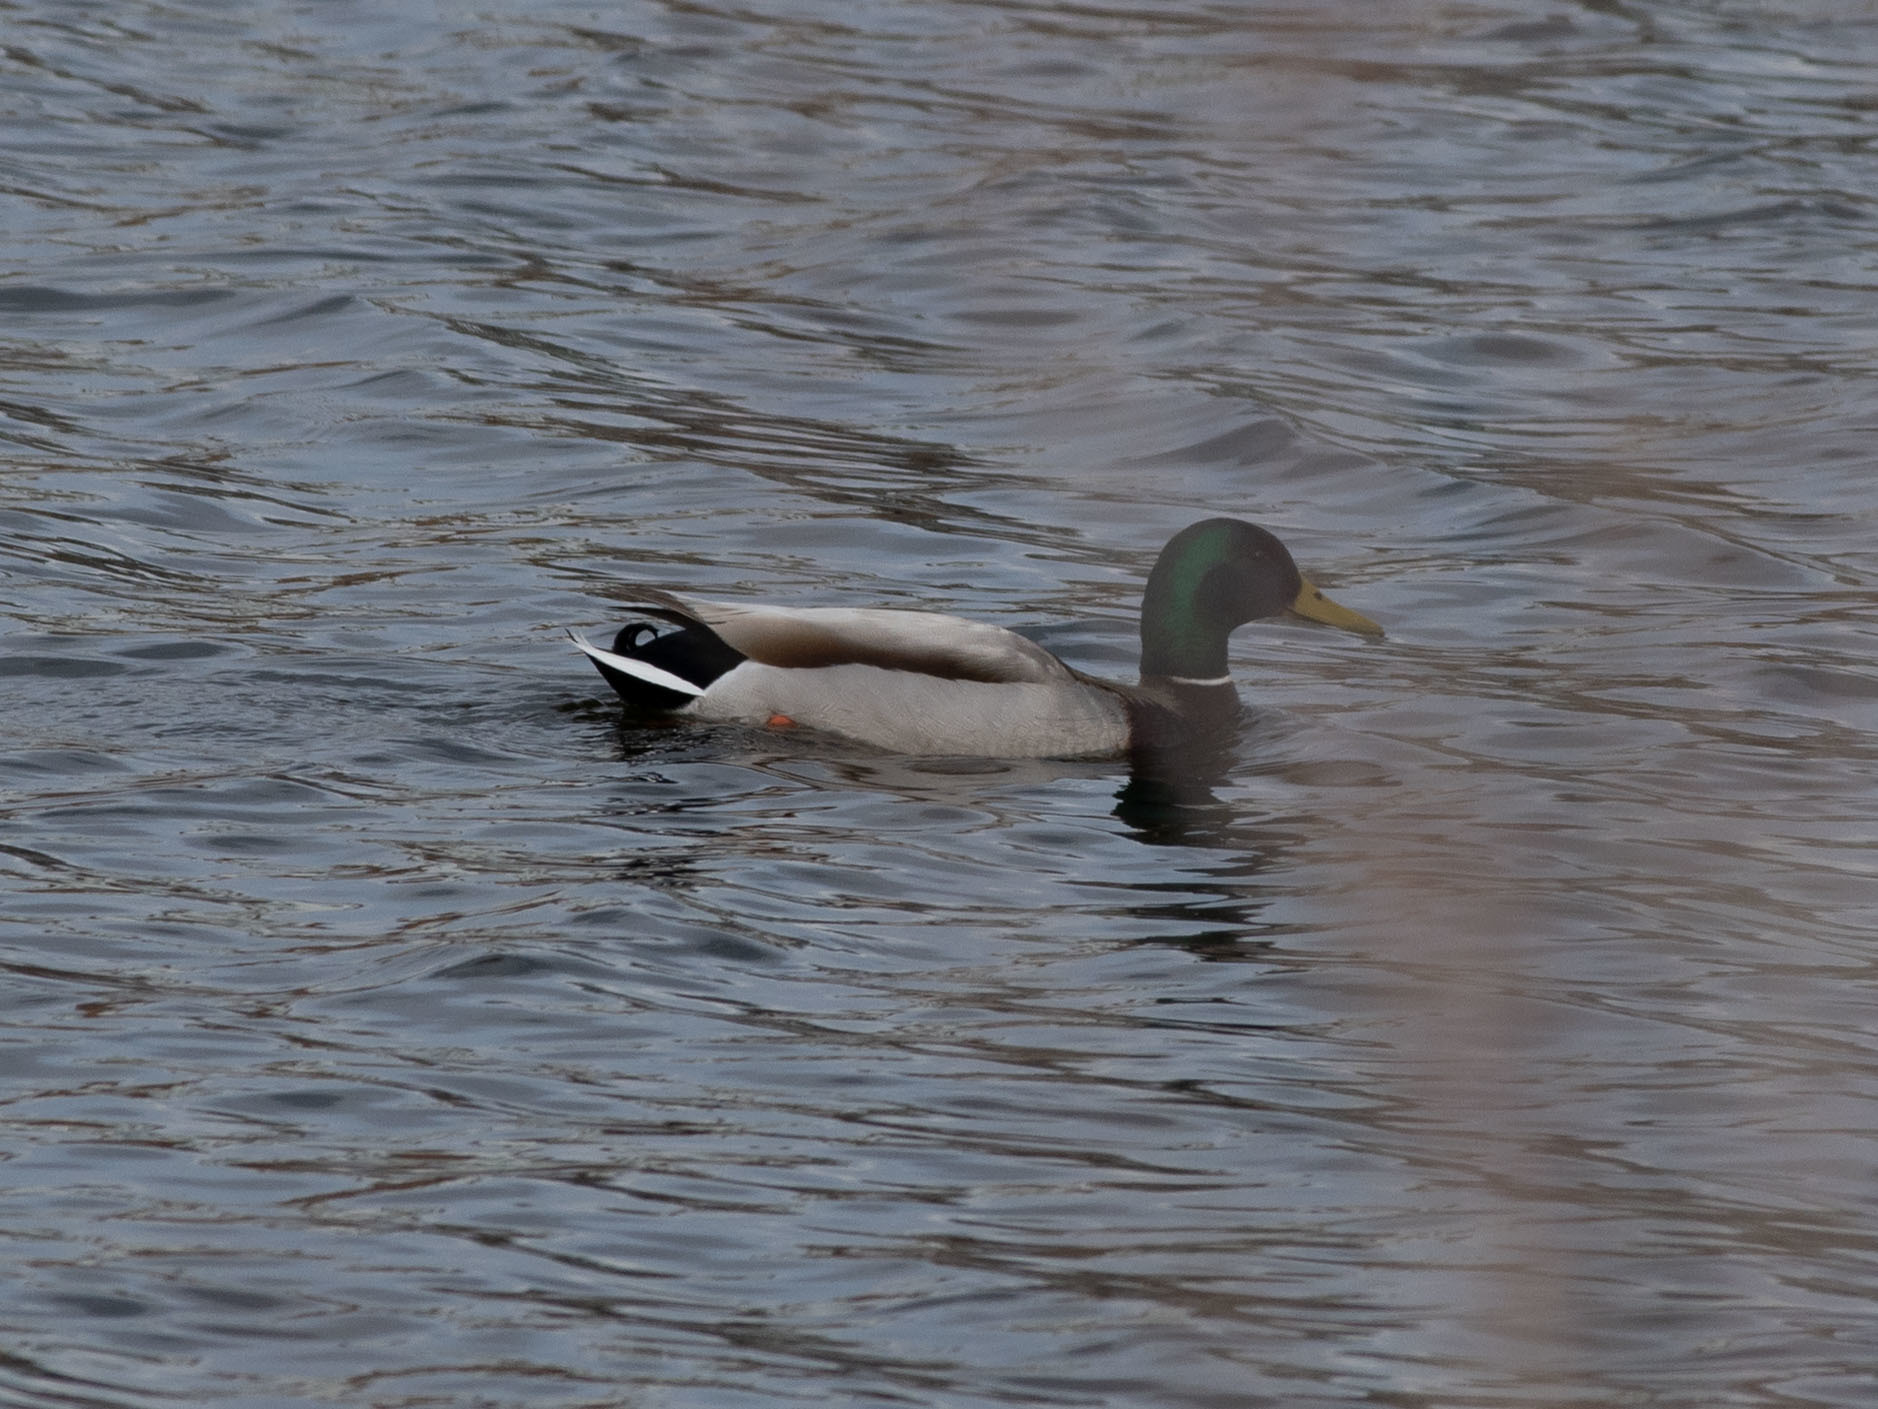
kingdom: Animalia
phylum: Chordata
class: Aves
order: Anseriformes
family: Anatidae
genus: Anas
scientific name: Anas platyrhynchos
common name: Mallard
